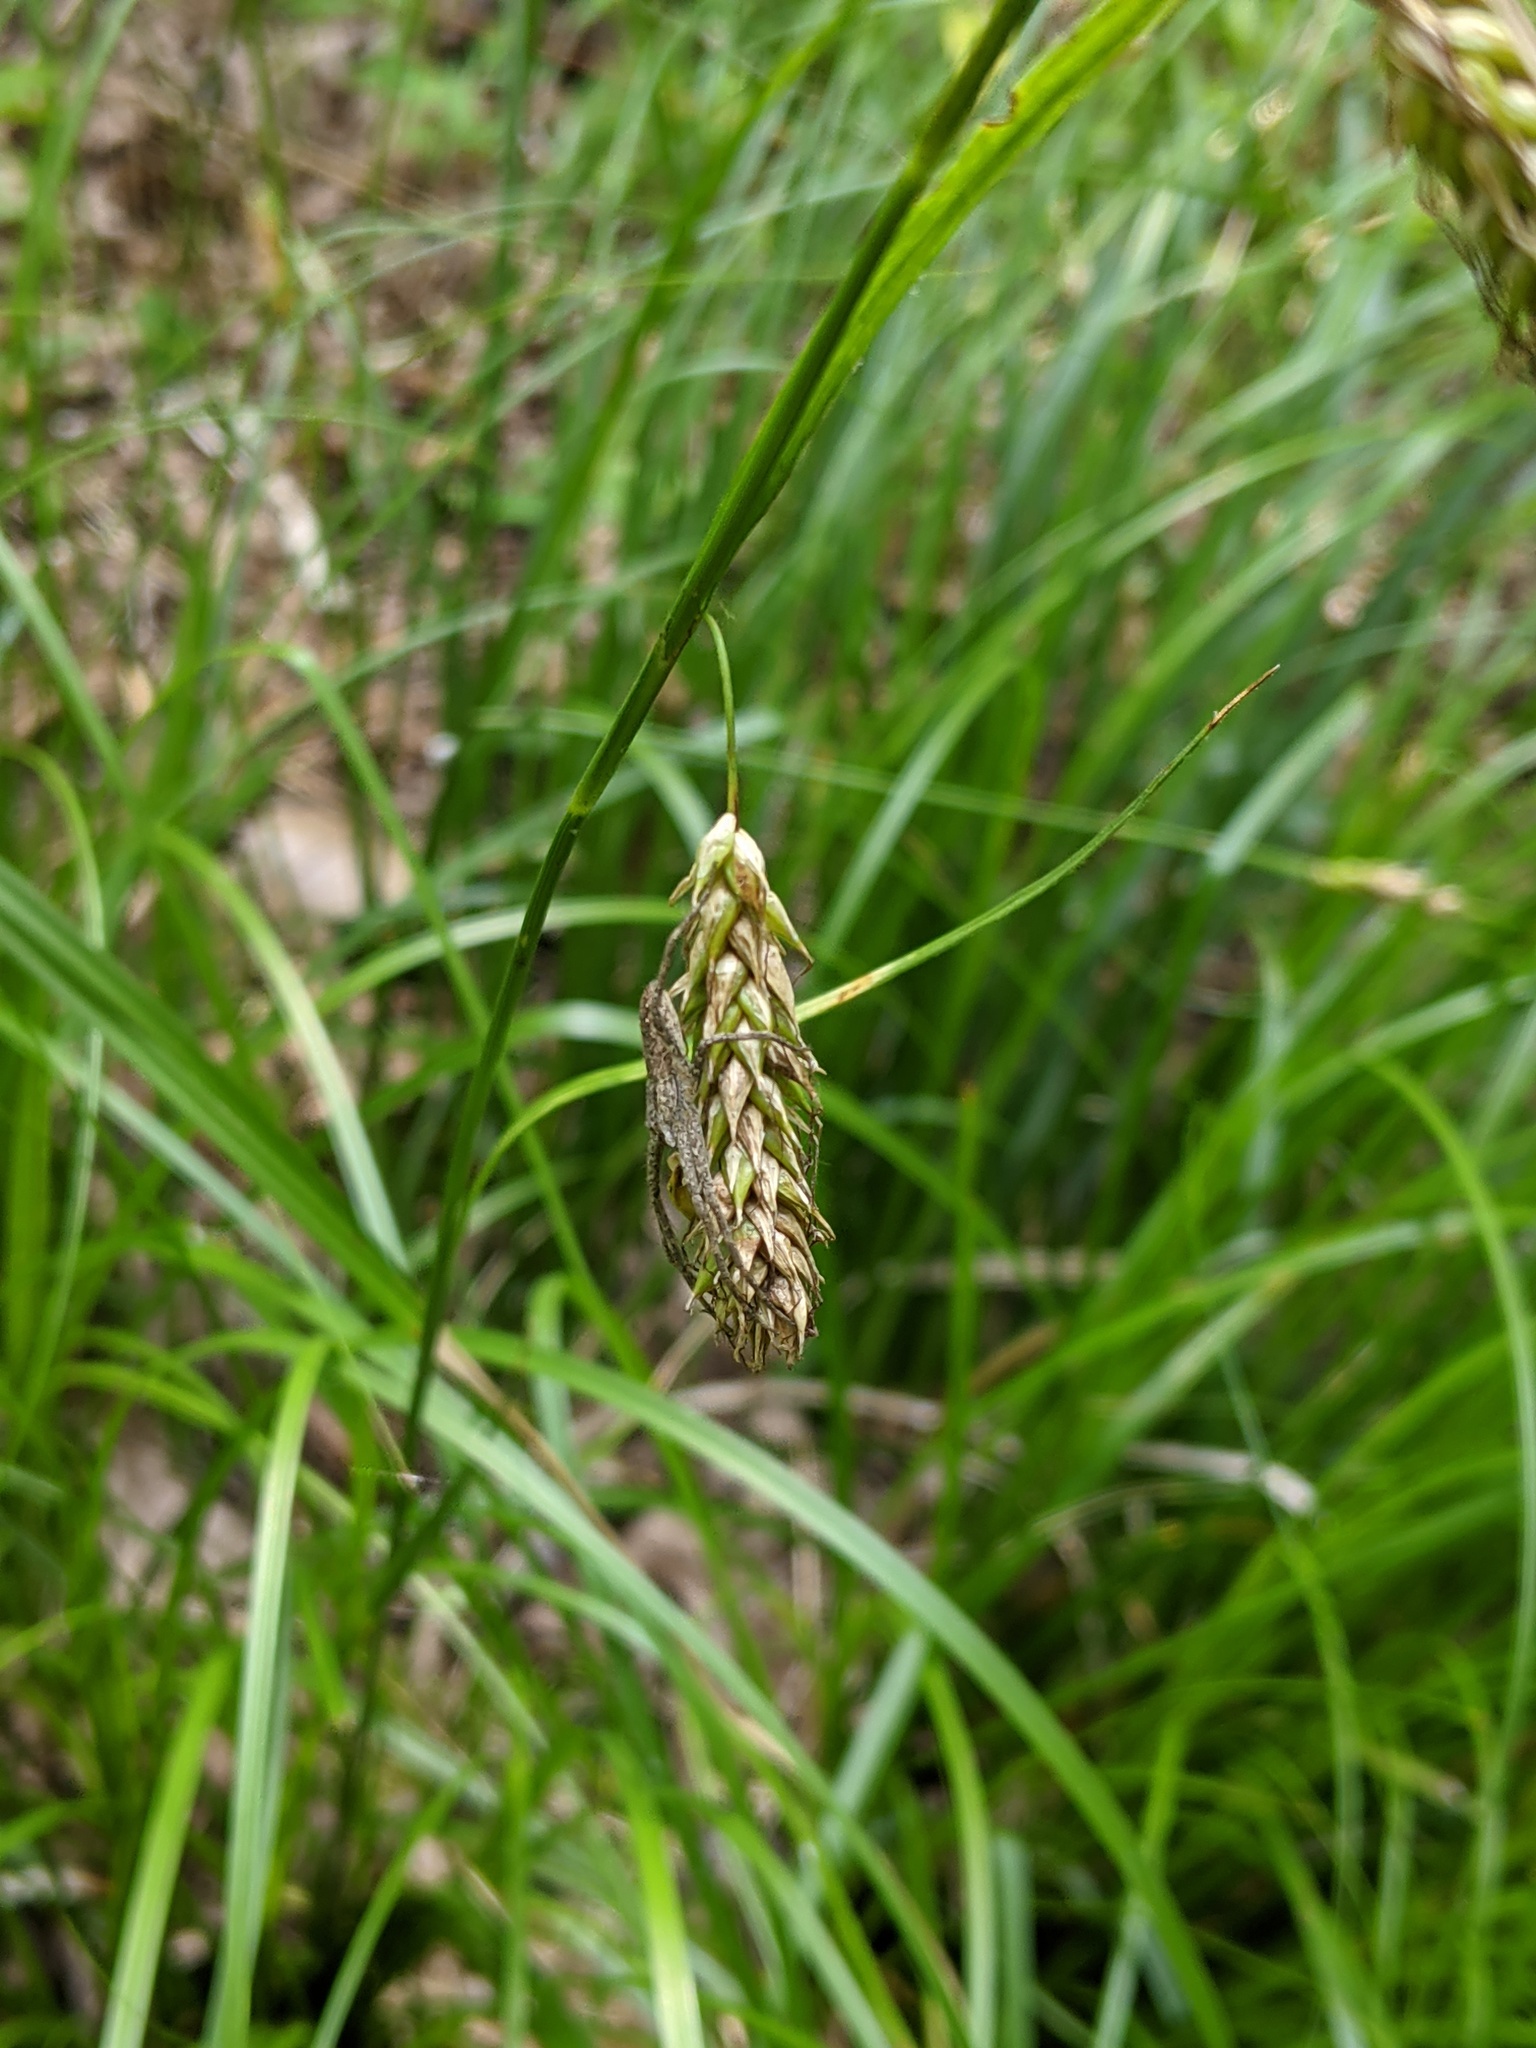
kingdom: Plantae
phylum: Tracheophyta
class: Liliopsida
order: Poales
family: Cyperaceae
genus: Carex
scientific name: Carex cherokeensis
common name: Cherokee sedge
